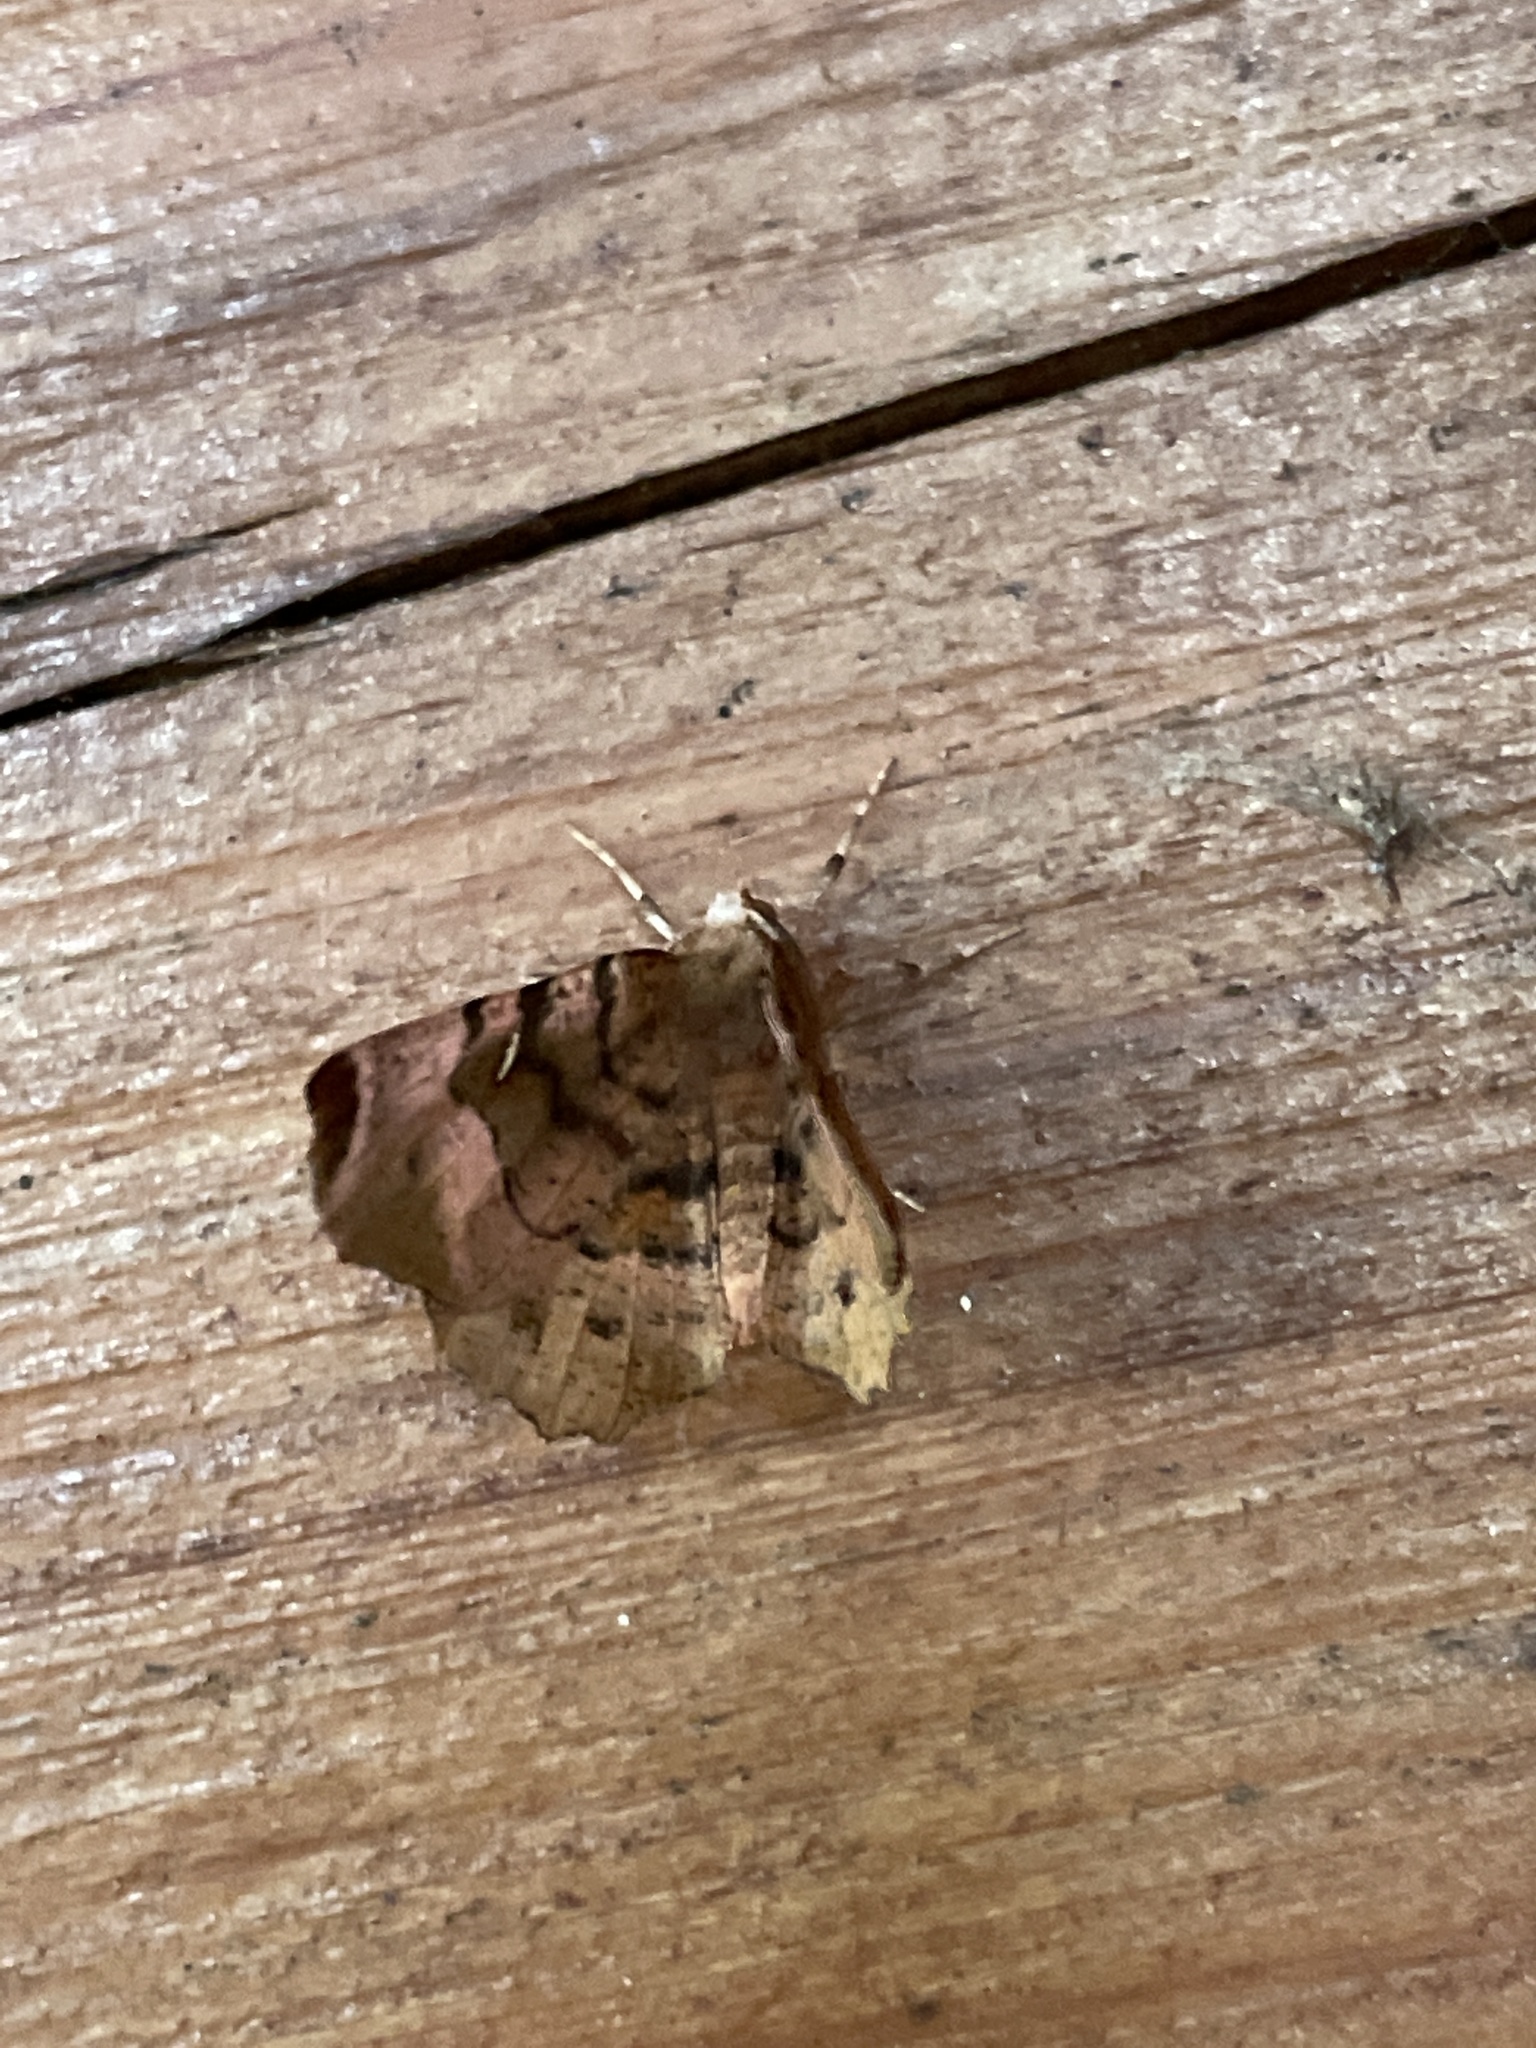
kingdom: Animalia
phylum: Arthropoda
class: Insecta
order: Lepidoptera
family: Geometridae
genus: Selenia
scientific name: Selenia tetralunaria
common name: Purple thorn
